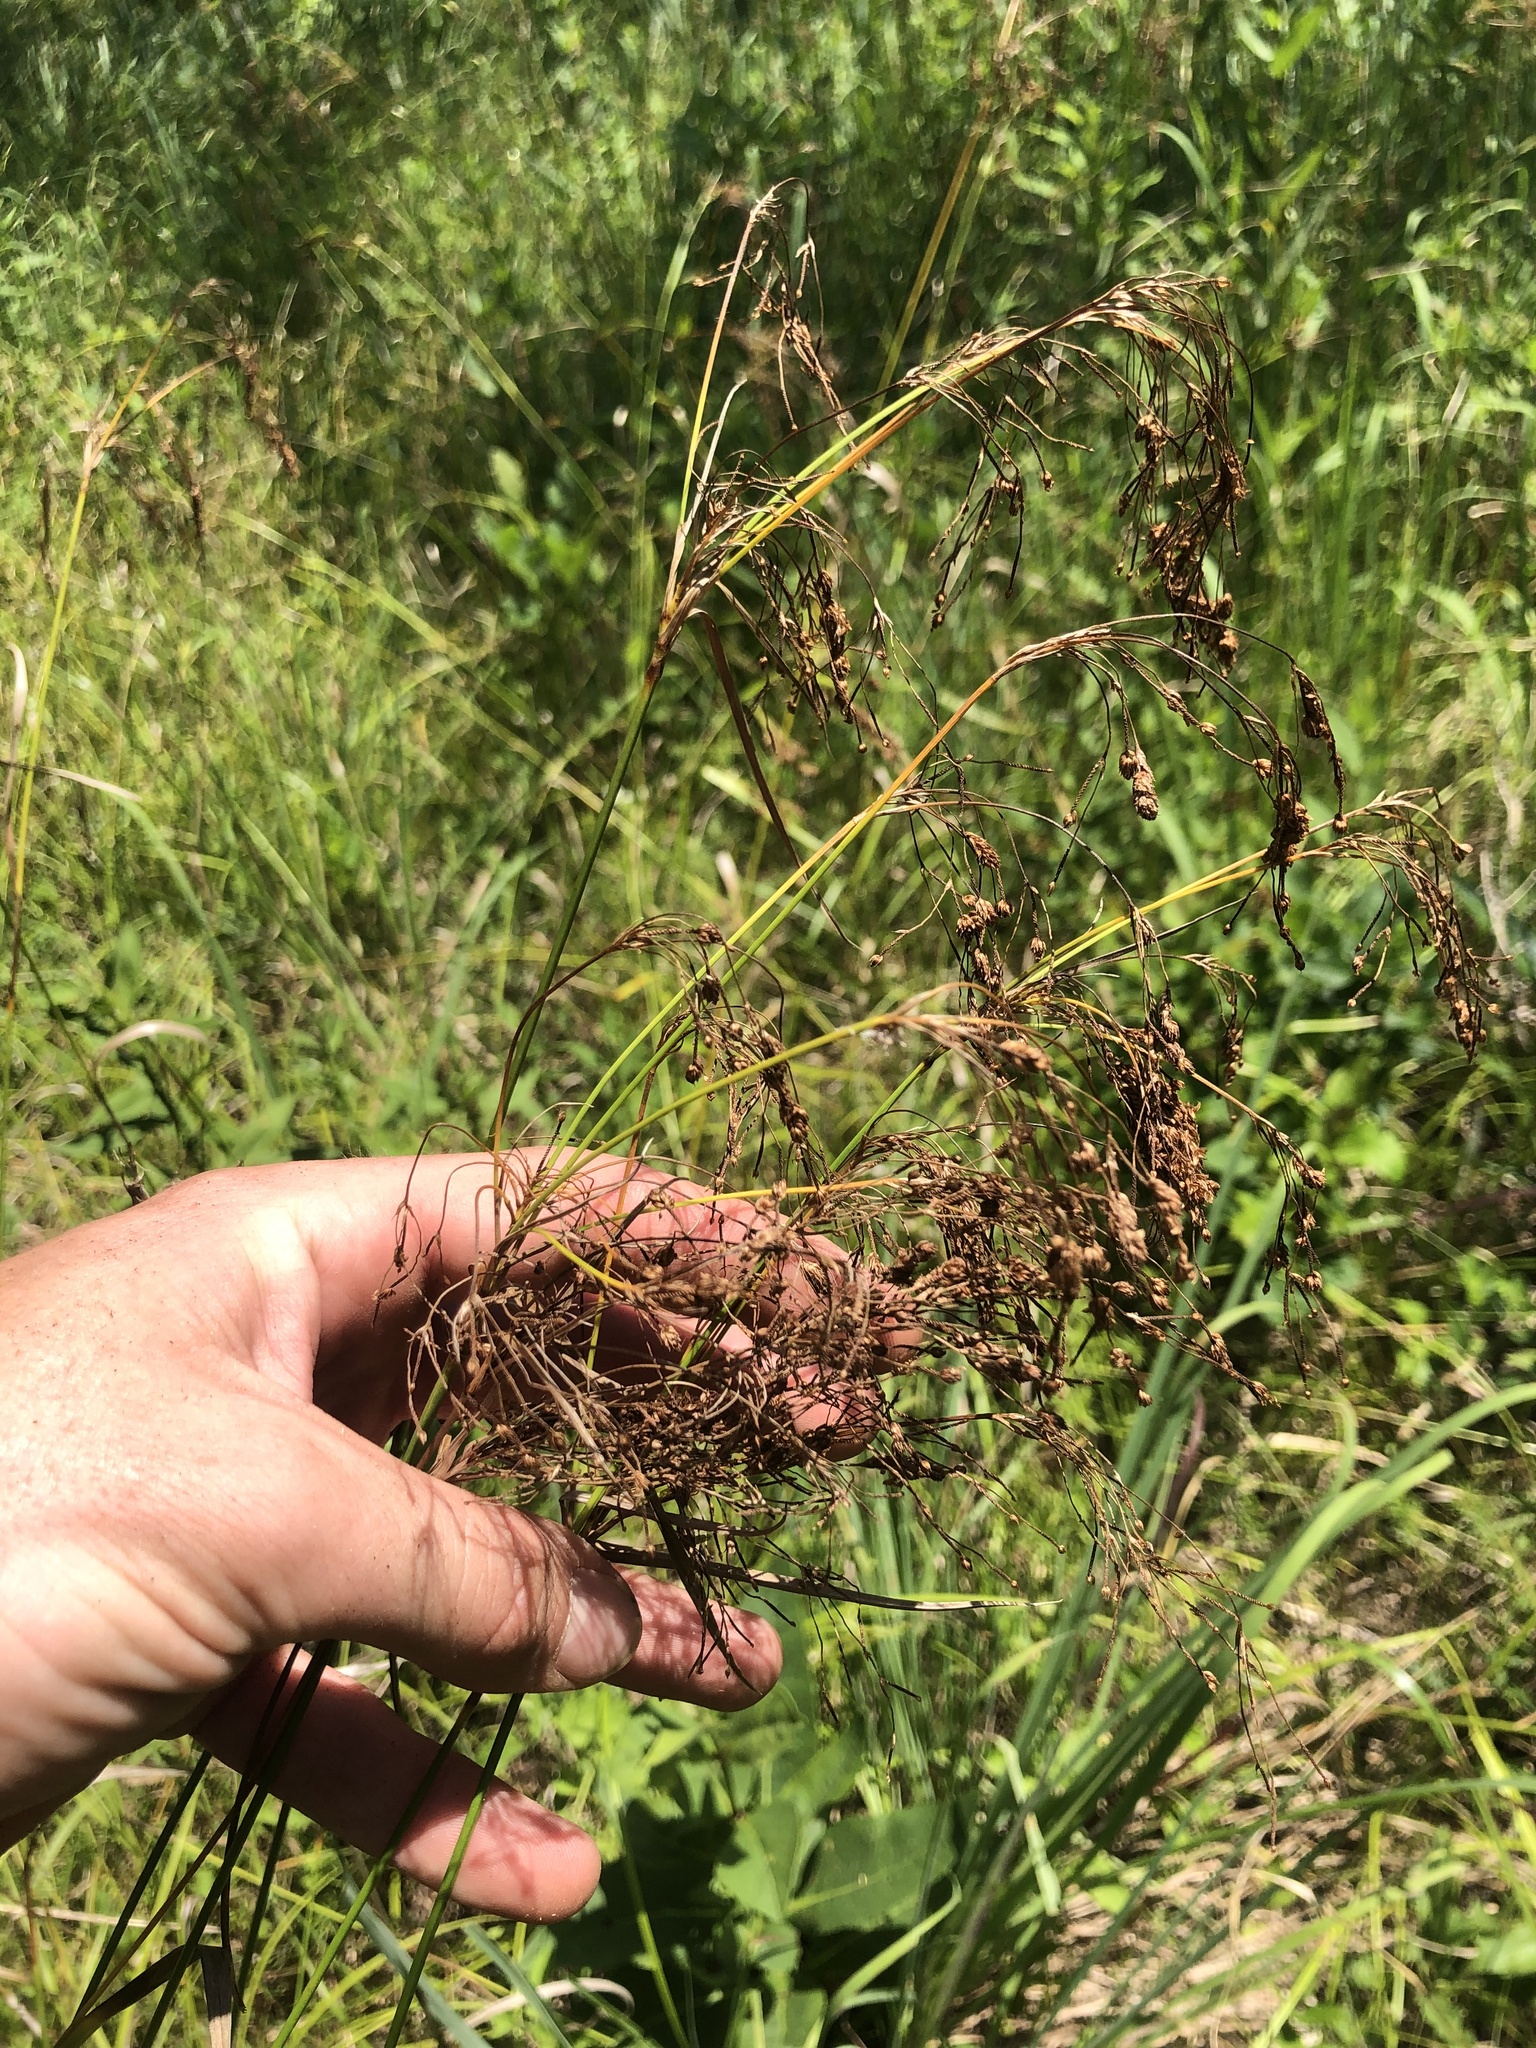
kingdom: Plantae
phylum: Tracheophyta
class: Liliopsida
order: Poales
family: Cyperaceae
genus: Scirpus
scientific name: Scirpus pendulus
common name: Nodding bulrush
